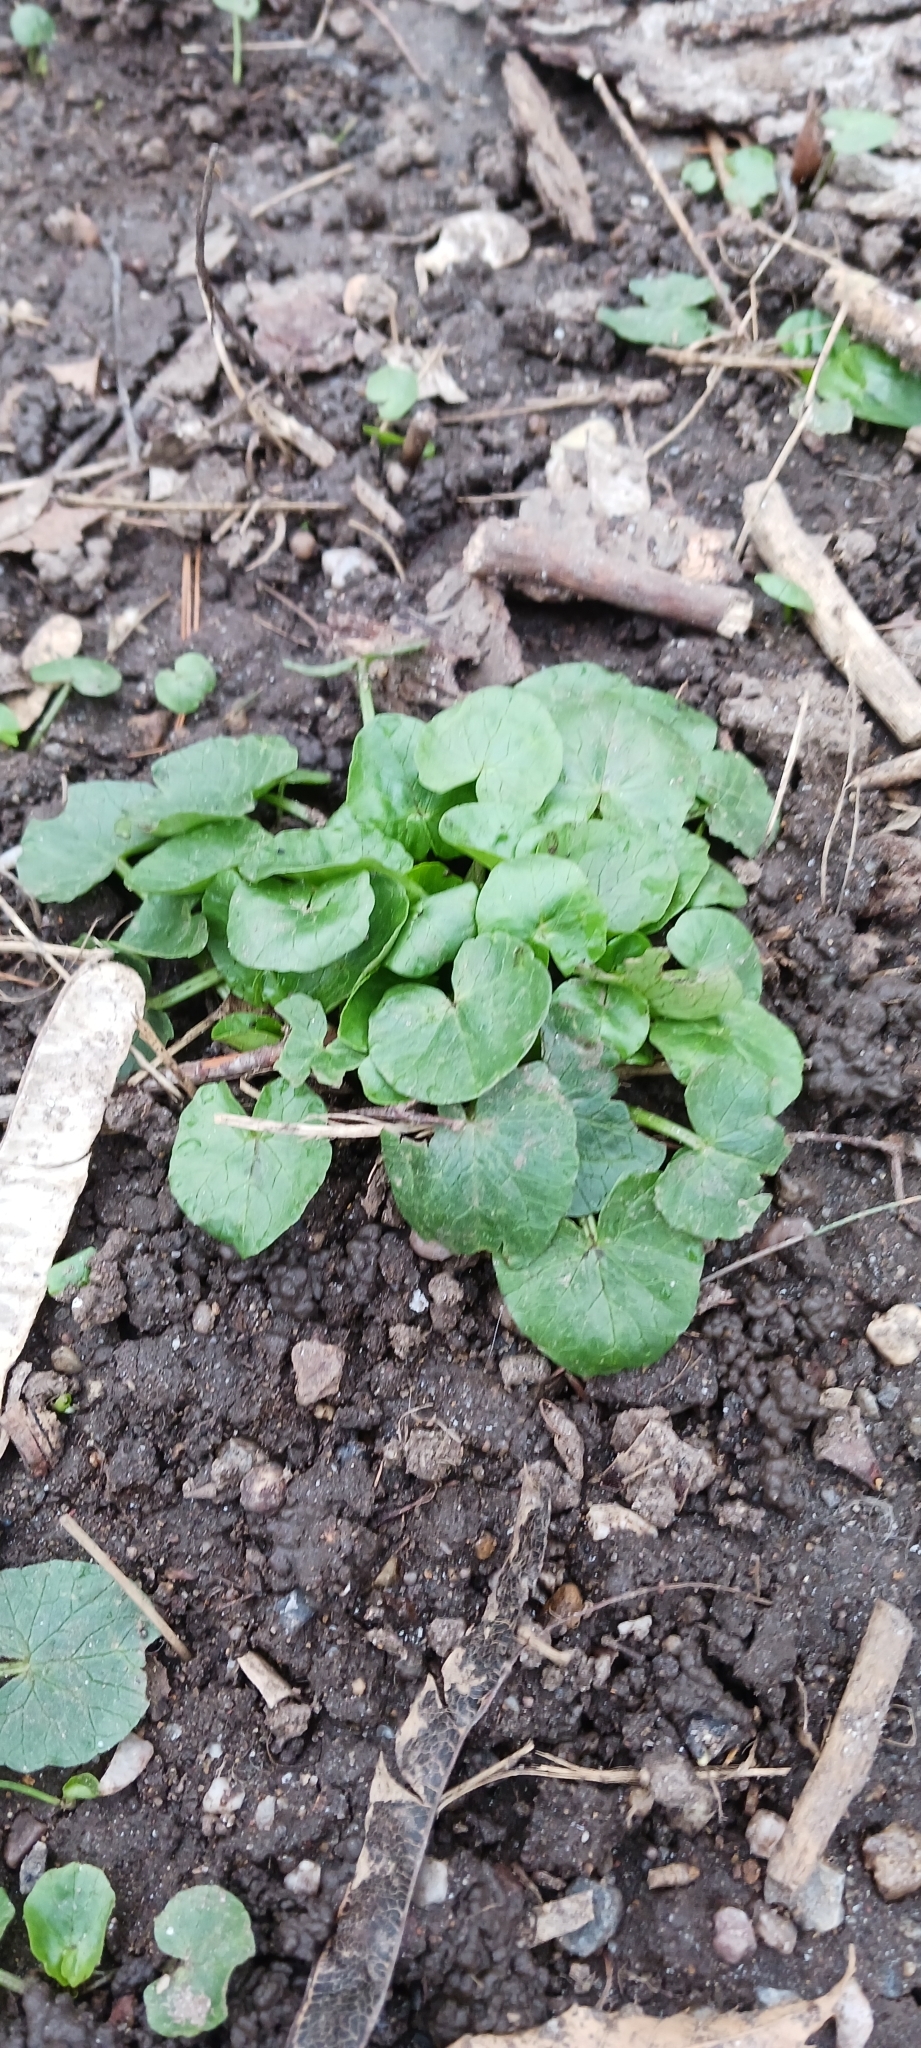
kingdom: Plantae
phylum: Tracheophyta
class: Magnoliopsida
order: Ranunculales
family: Ranunculaceae
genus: Ficaria
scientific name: Ficaria verna
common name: Lesser celandine
